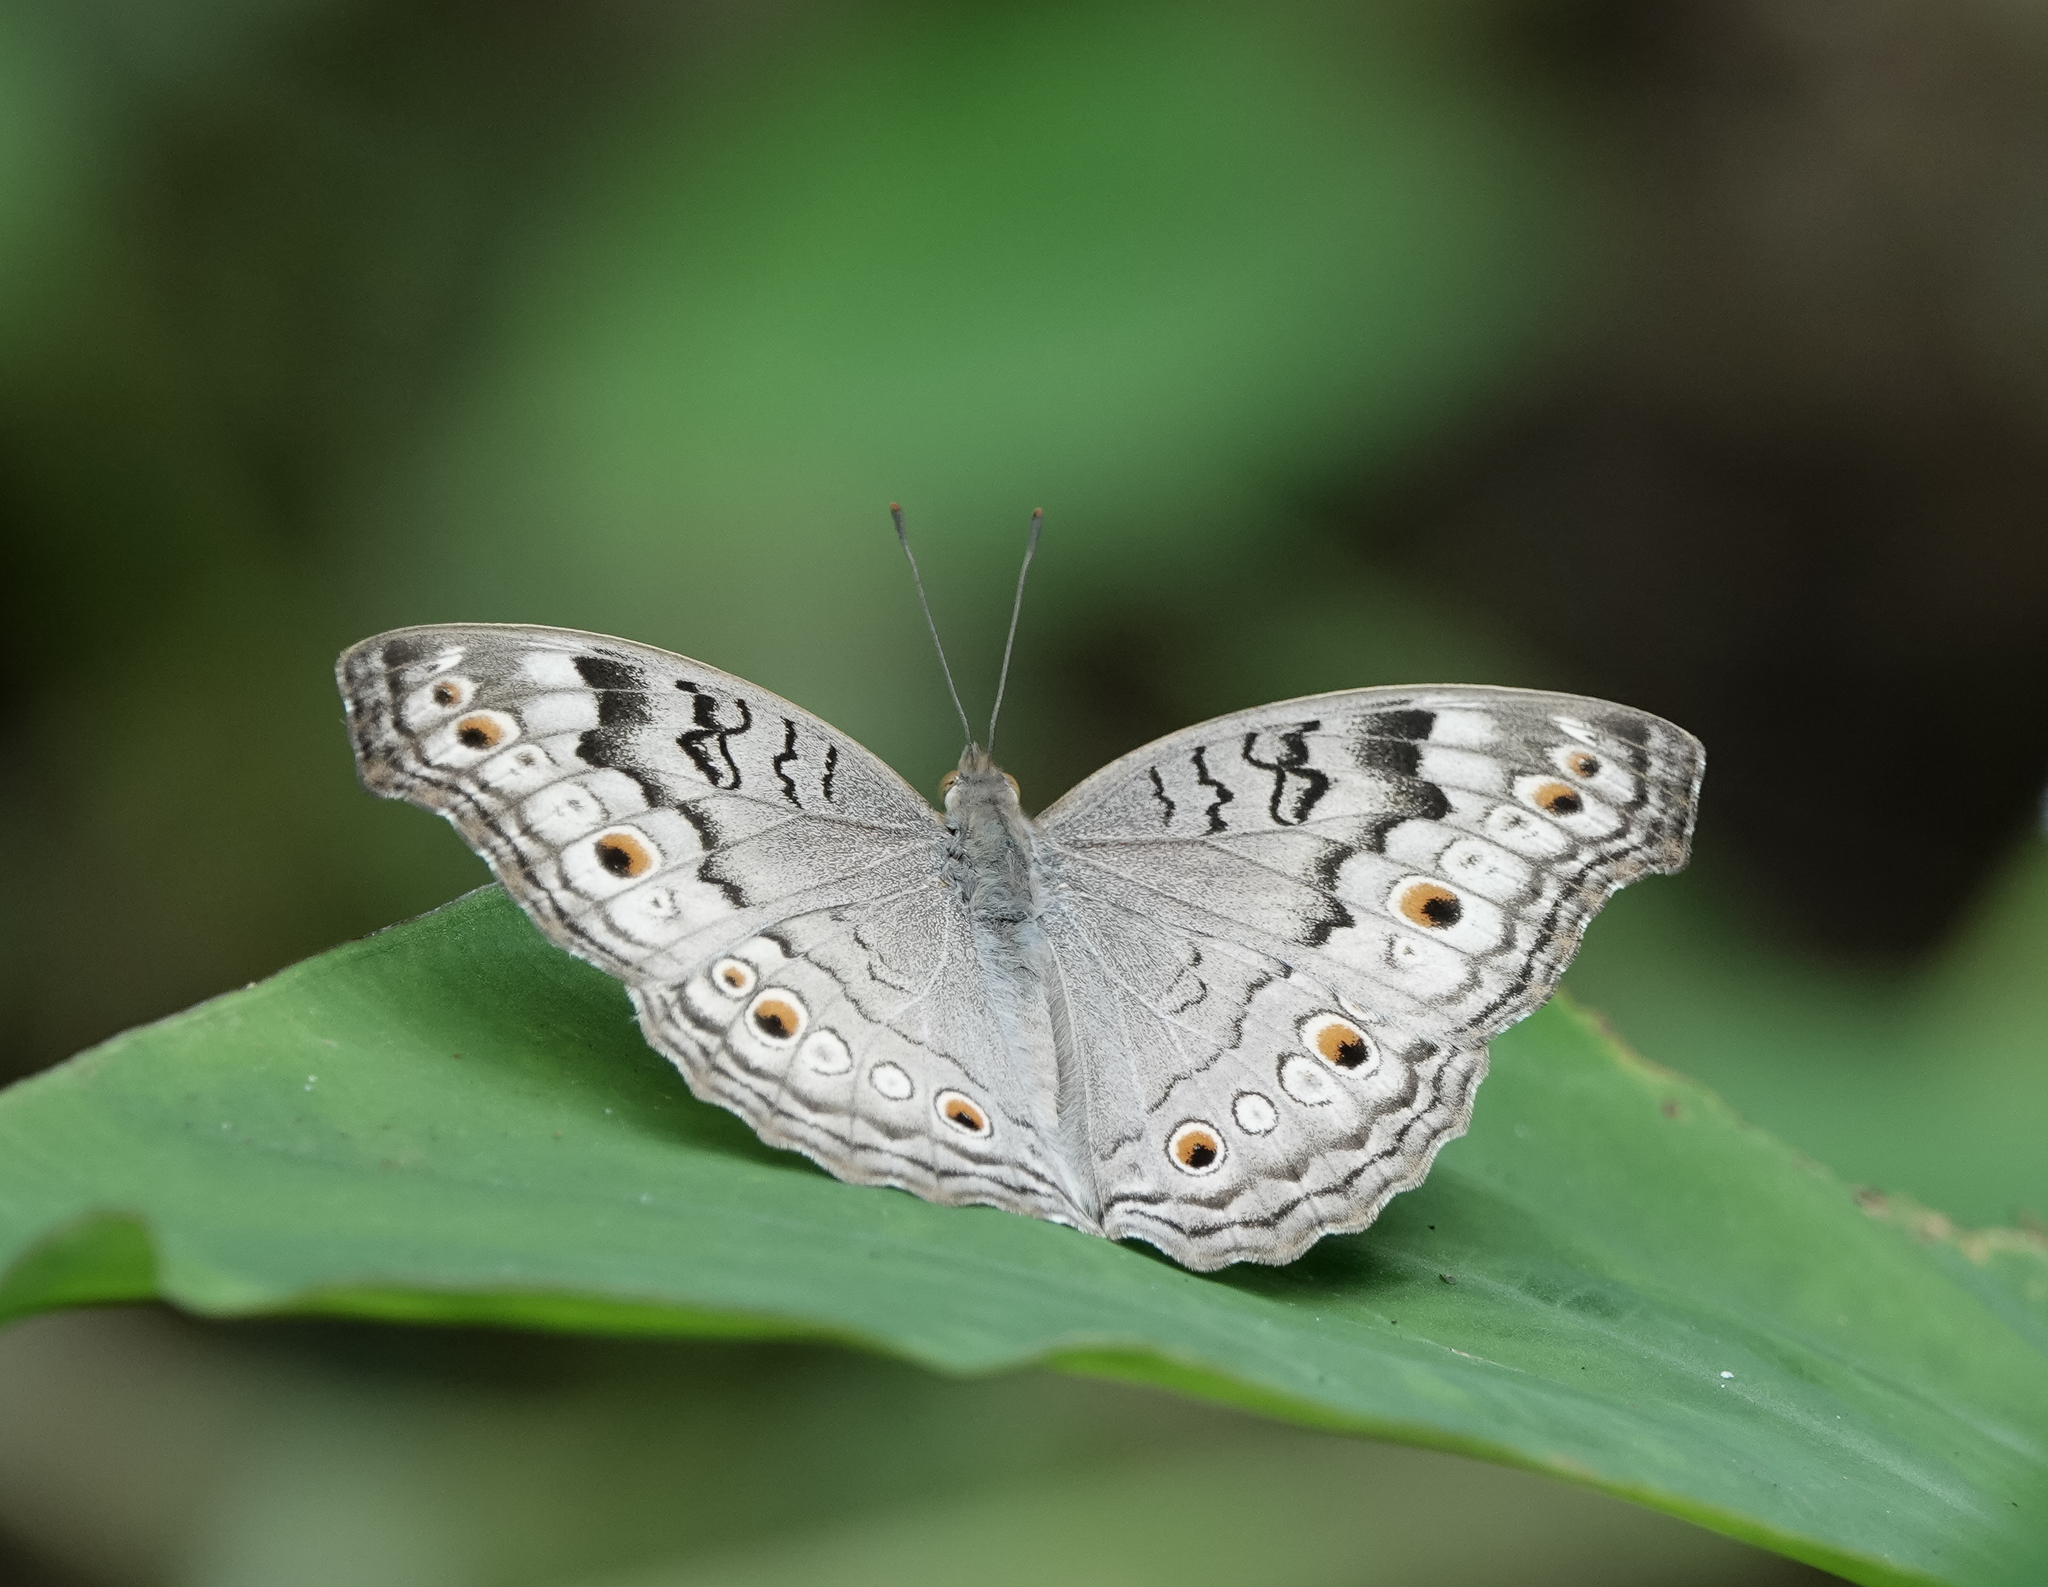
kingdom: Animalia
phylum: Arthropoda
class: Insecta
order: Lepidoptera
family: Nymphalidae
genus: Junonia
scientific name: Junonia atlites
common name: Grey pansy
